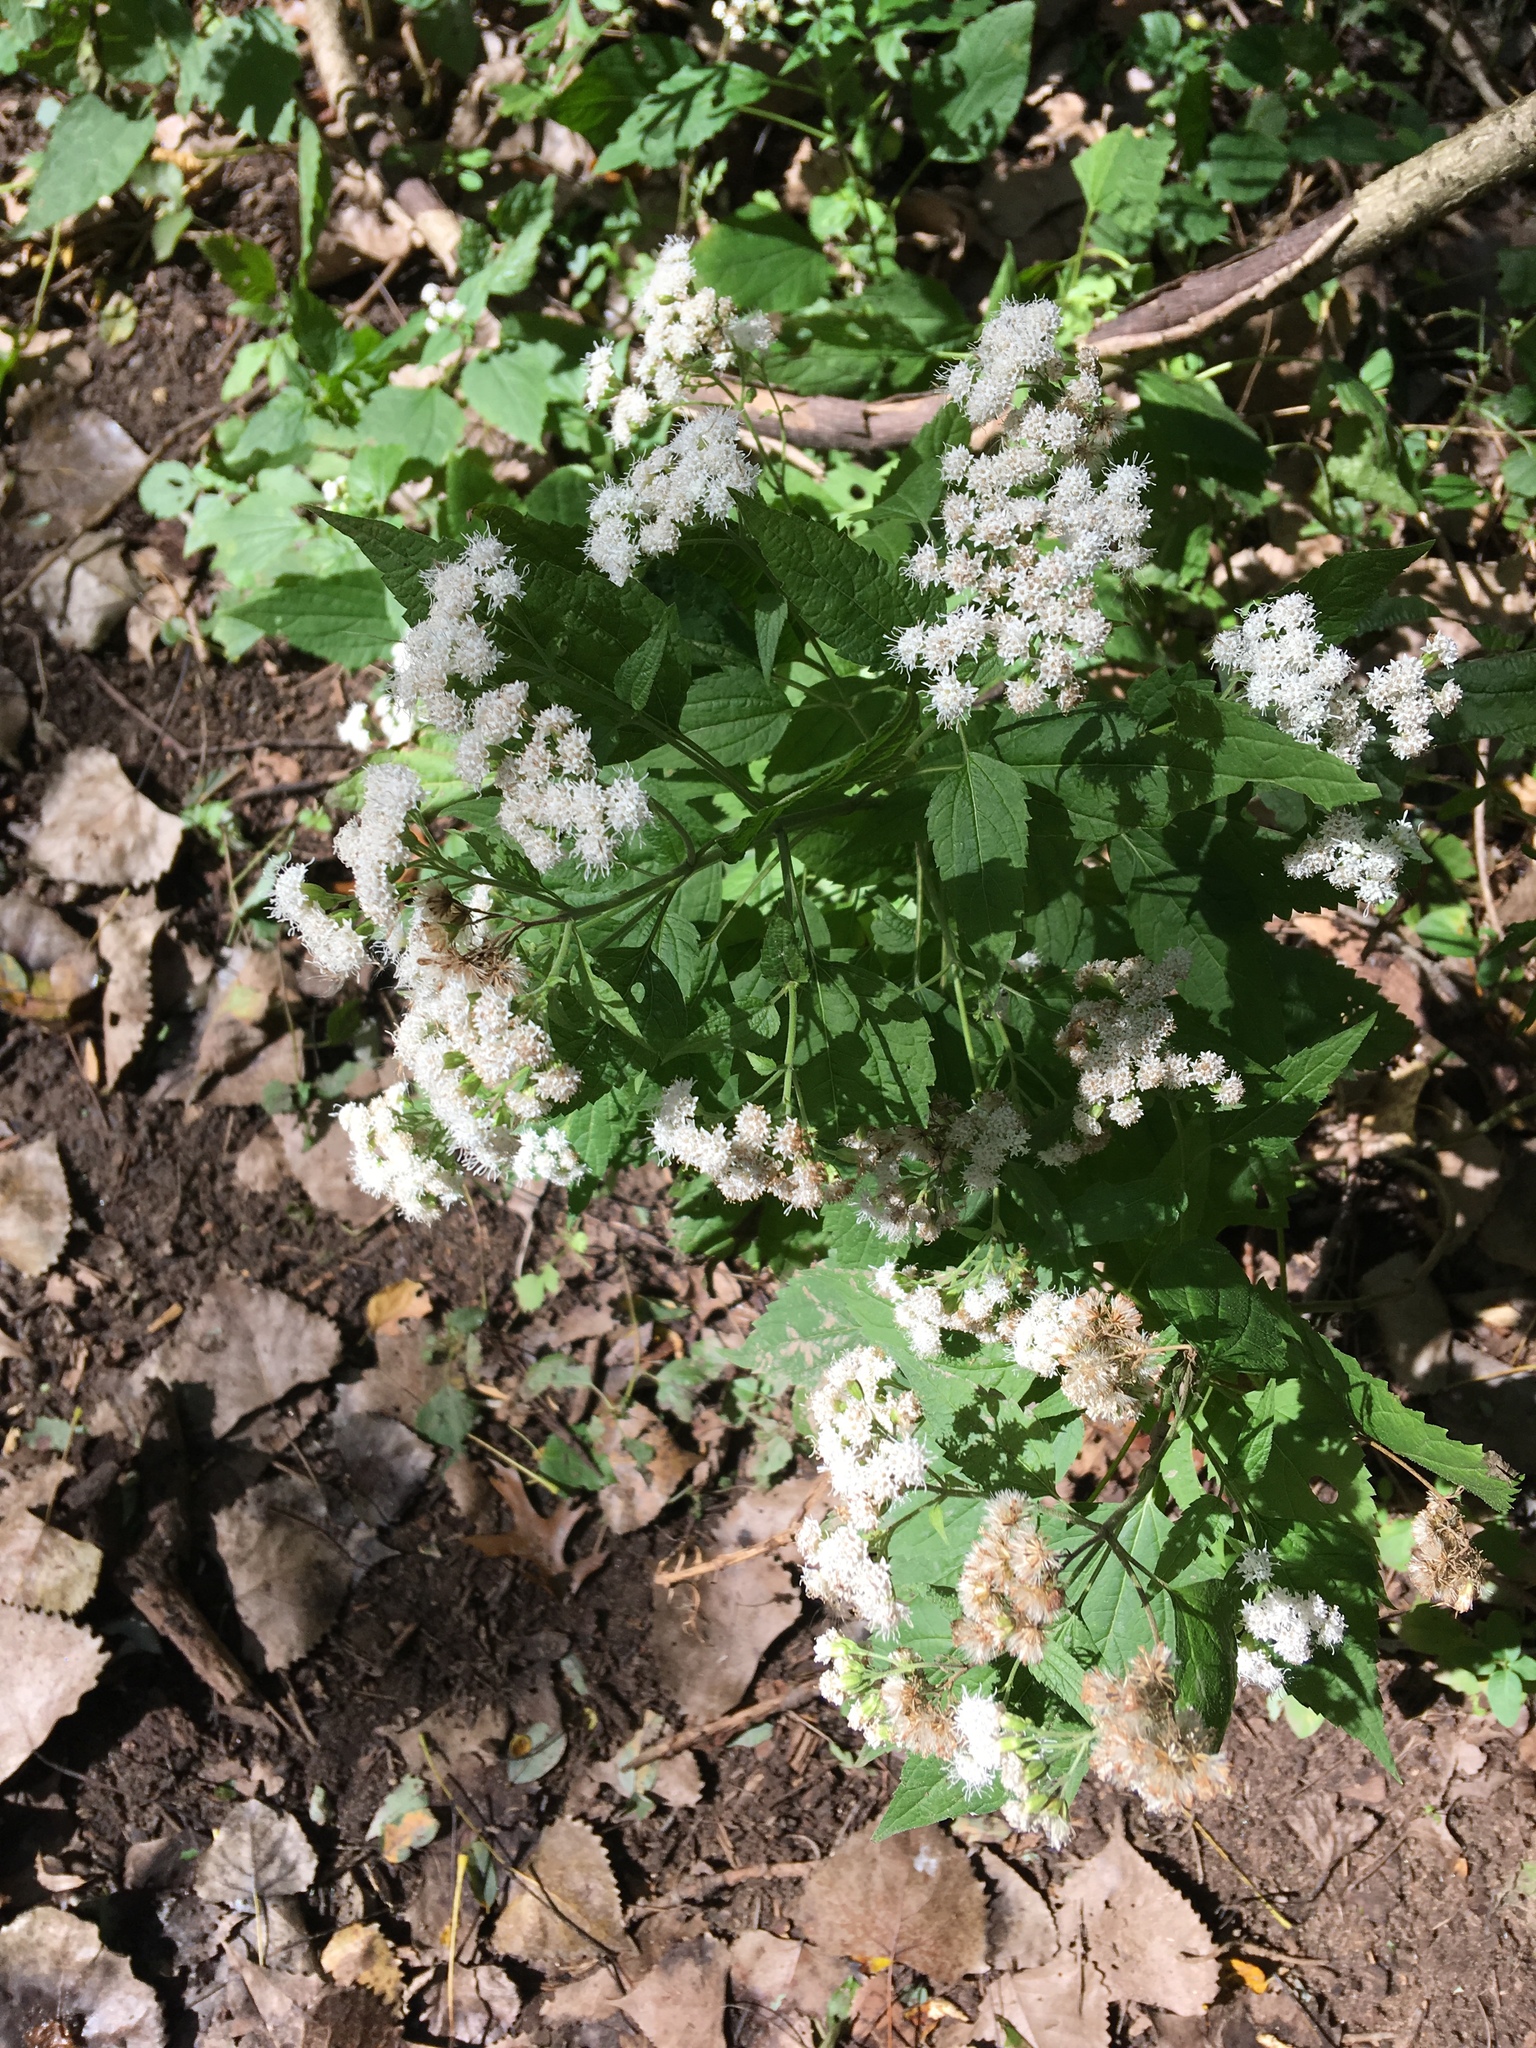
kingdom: Plantae
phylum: Tracheophyta
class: Magnoliopsida
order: Asterales
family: Asteraceae
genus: Ageratina
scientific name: Ageratina altissima
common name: White snakeroot
